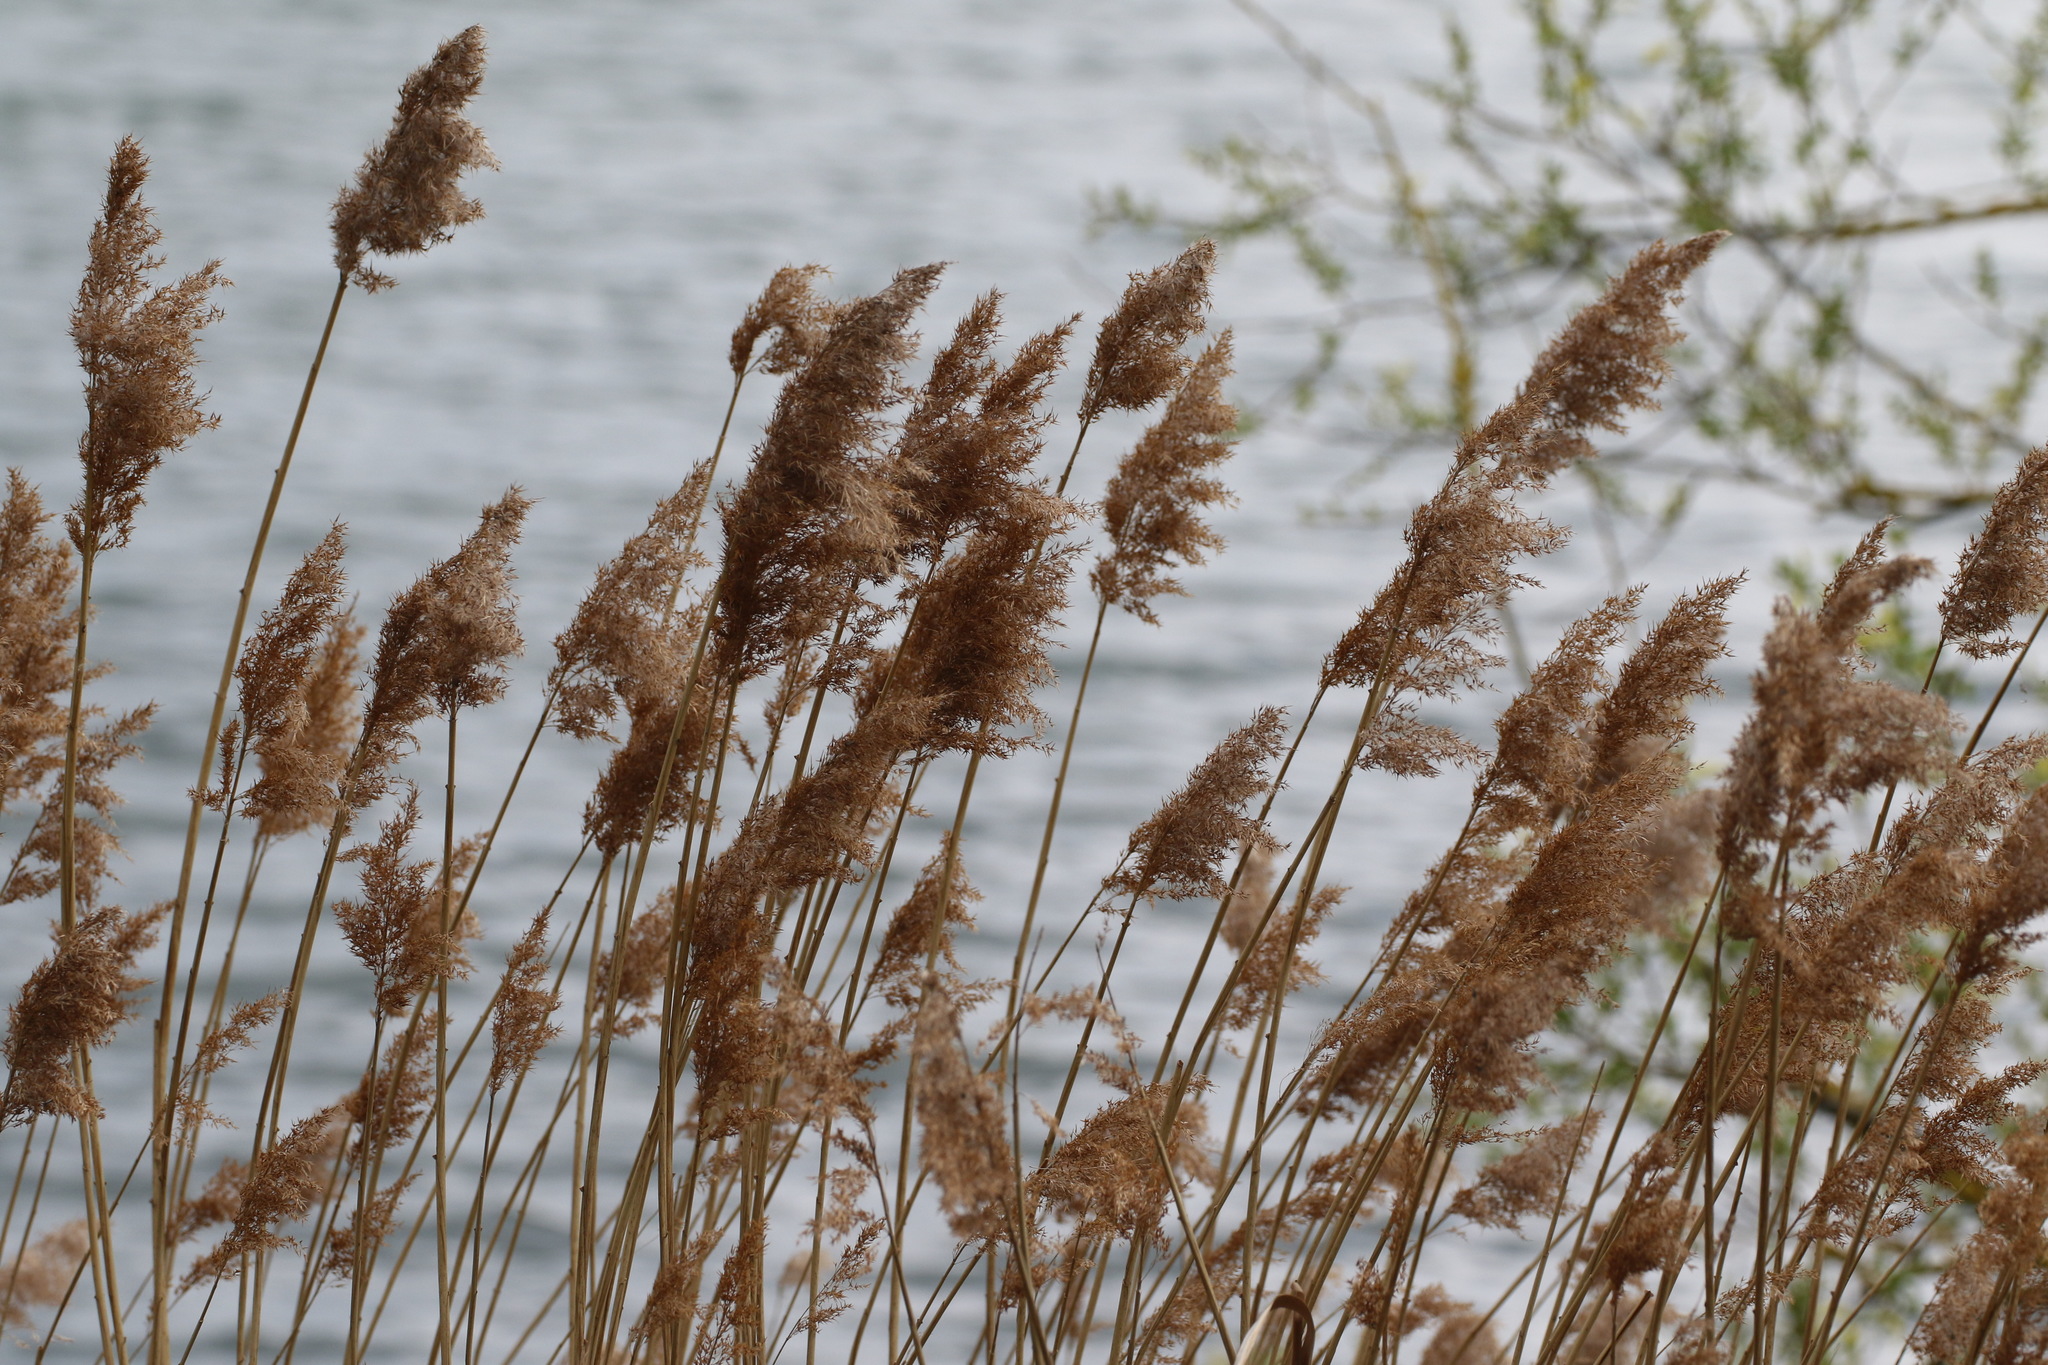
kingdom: Plantae
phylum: Tracheophyta
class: Liliopsida
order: Poales
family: Poaceae
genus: Phragmites
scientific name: Phragmites australis
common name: Common reed
